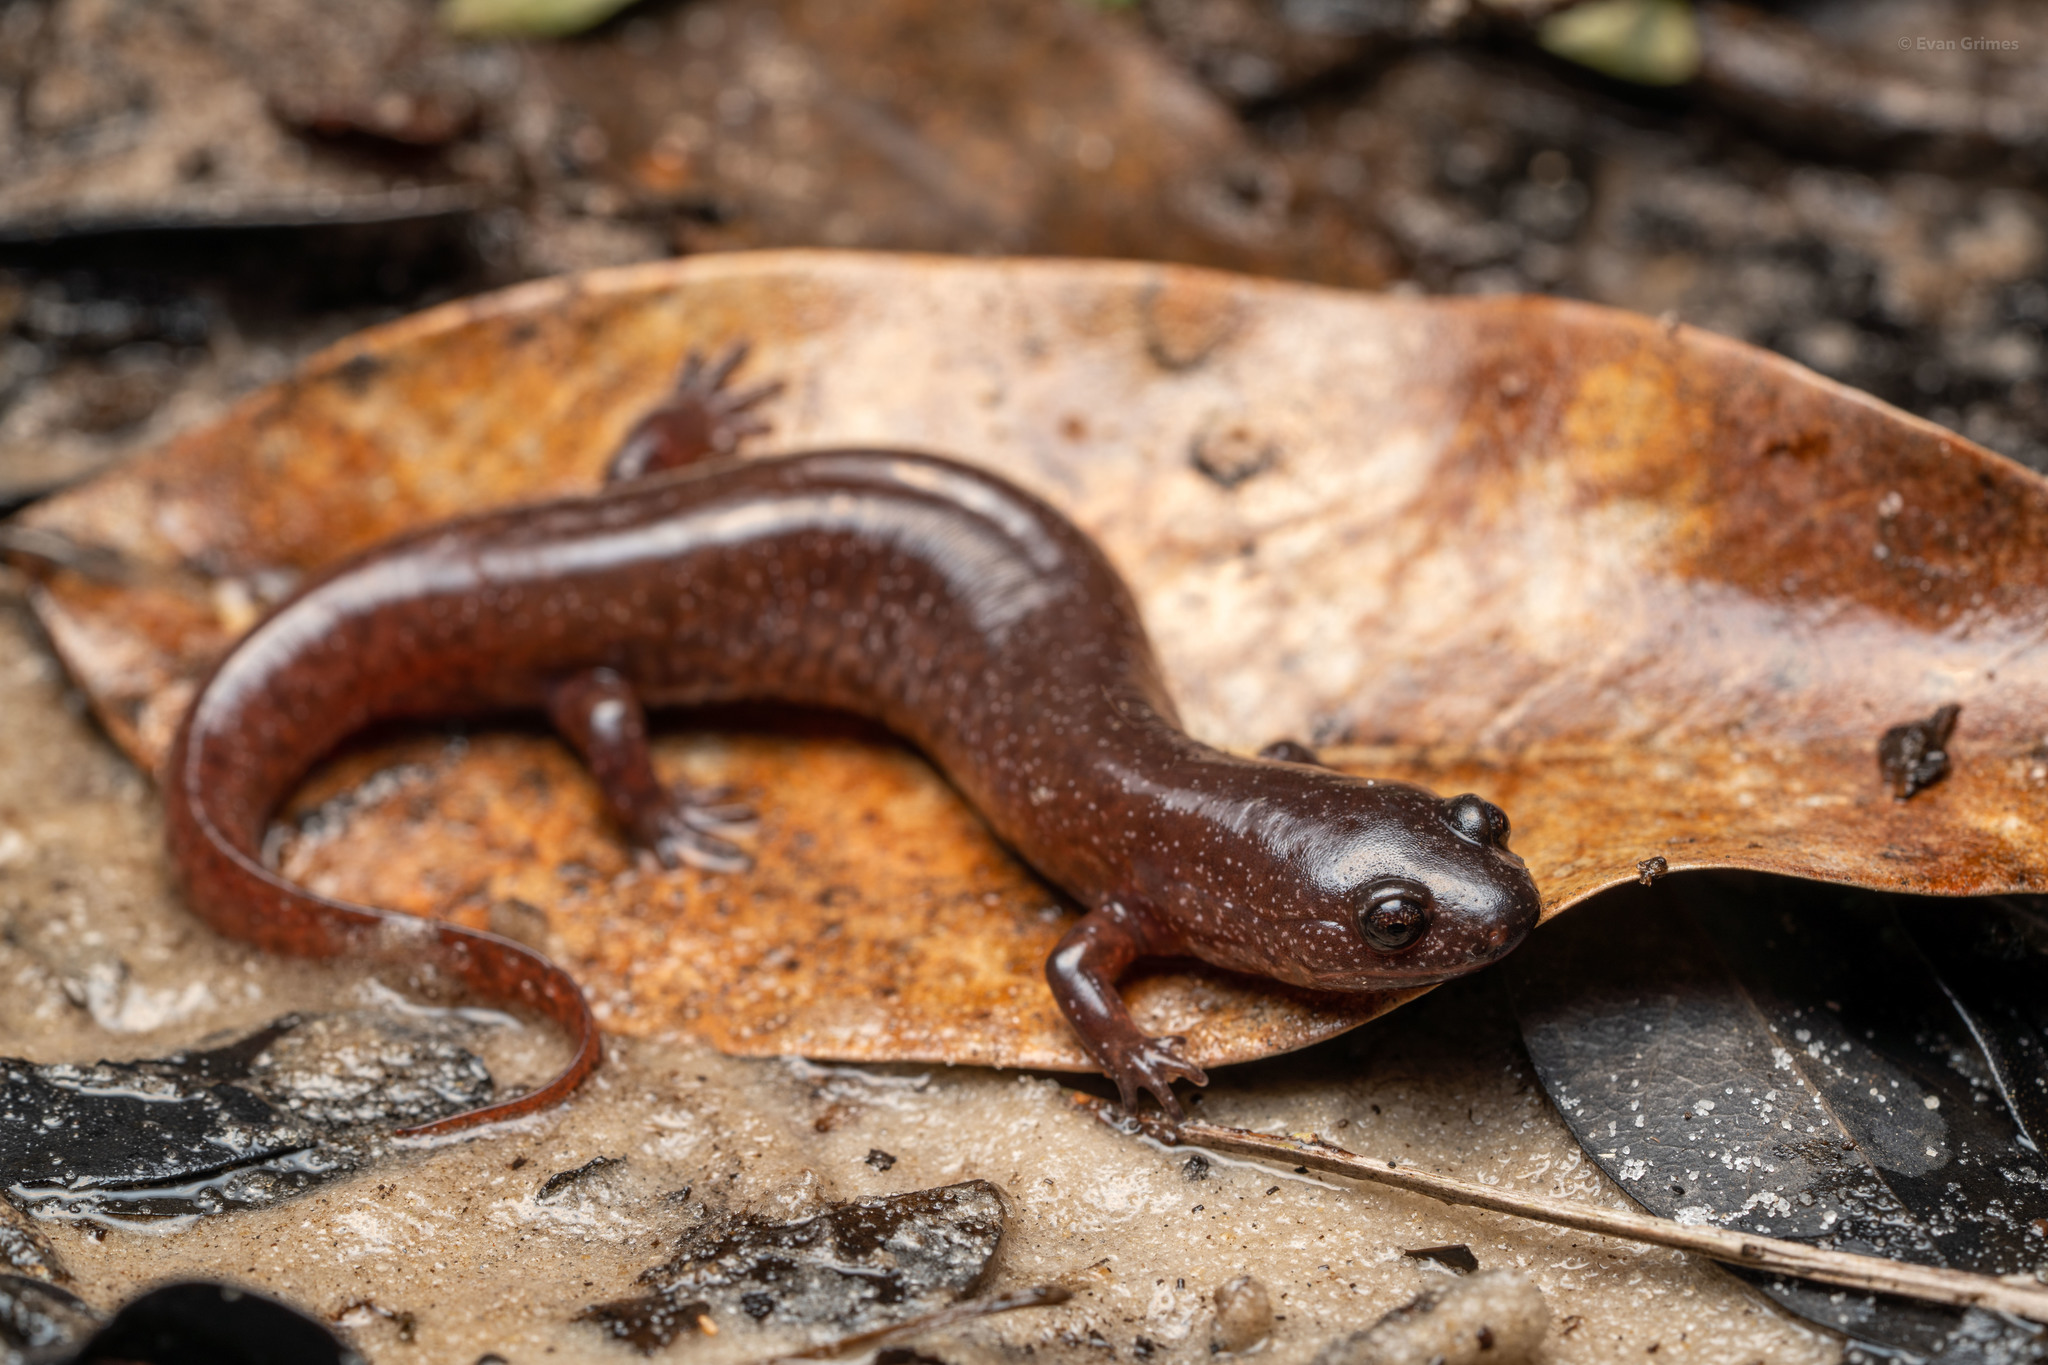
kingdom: Animalia
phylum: Chordata
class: Amphibia
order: Caudata
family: Plethodontidae
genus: Pseudotriton
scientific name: Pseudotriton ruber
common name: Red salamander
